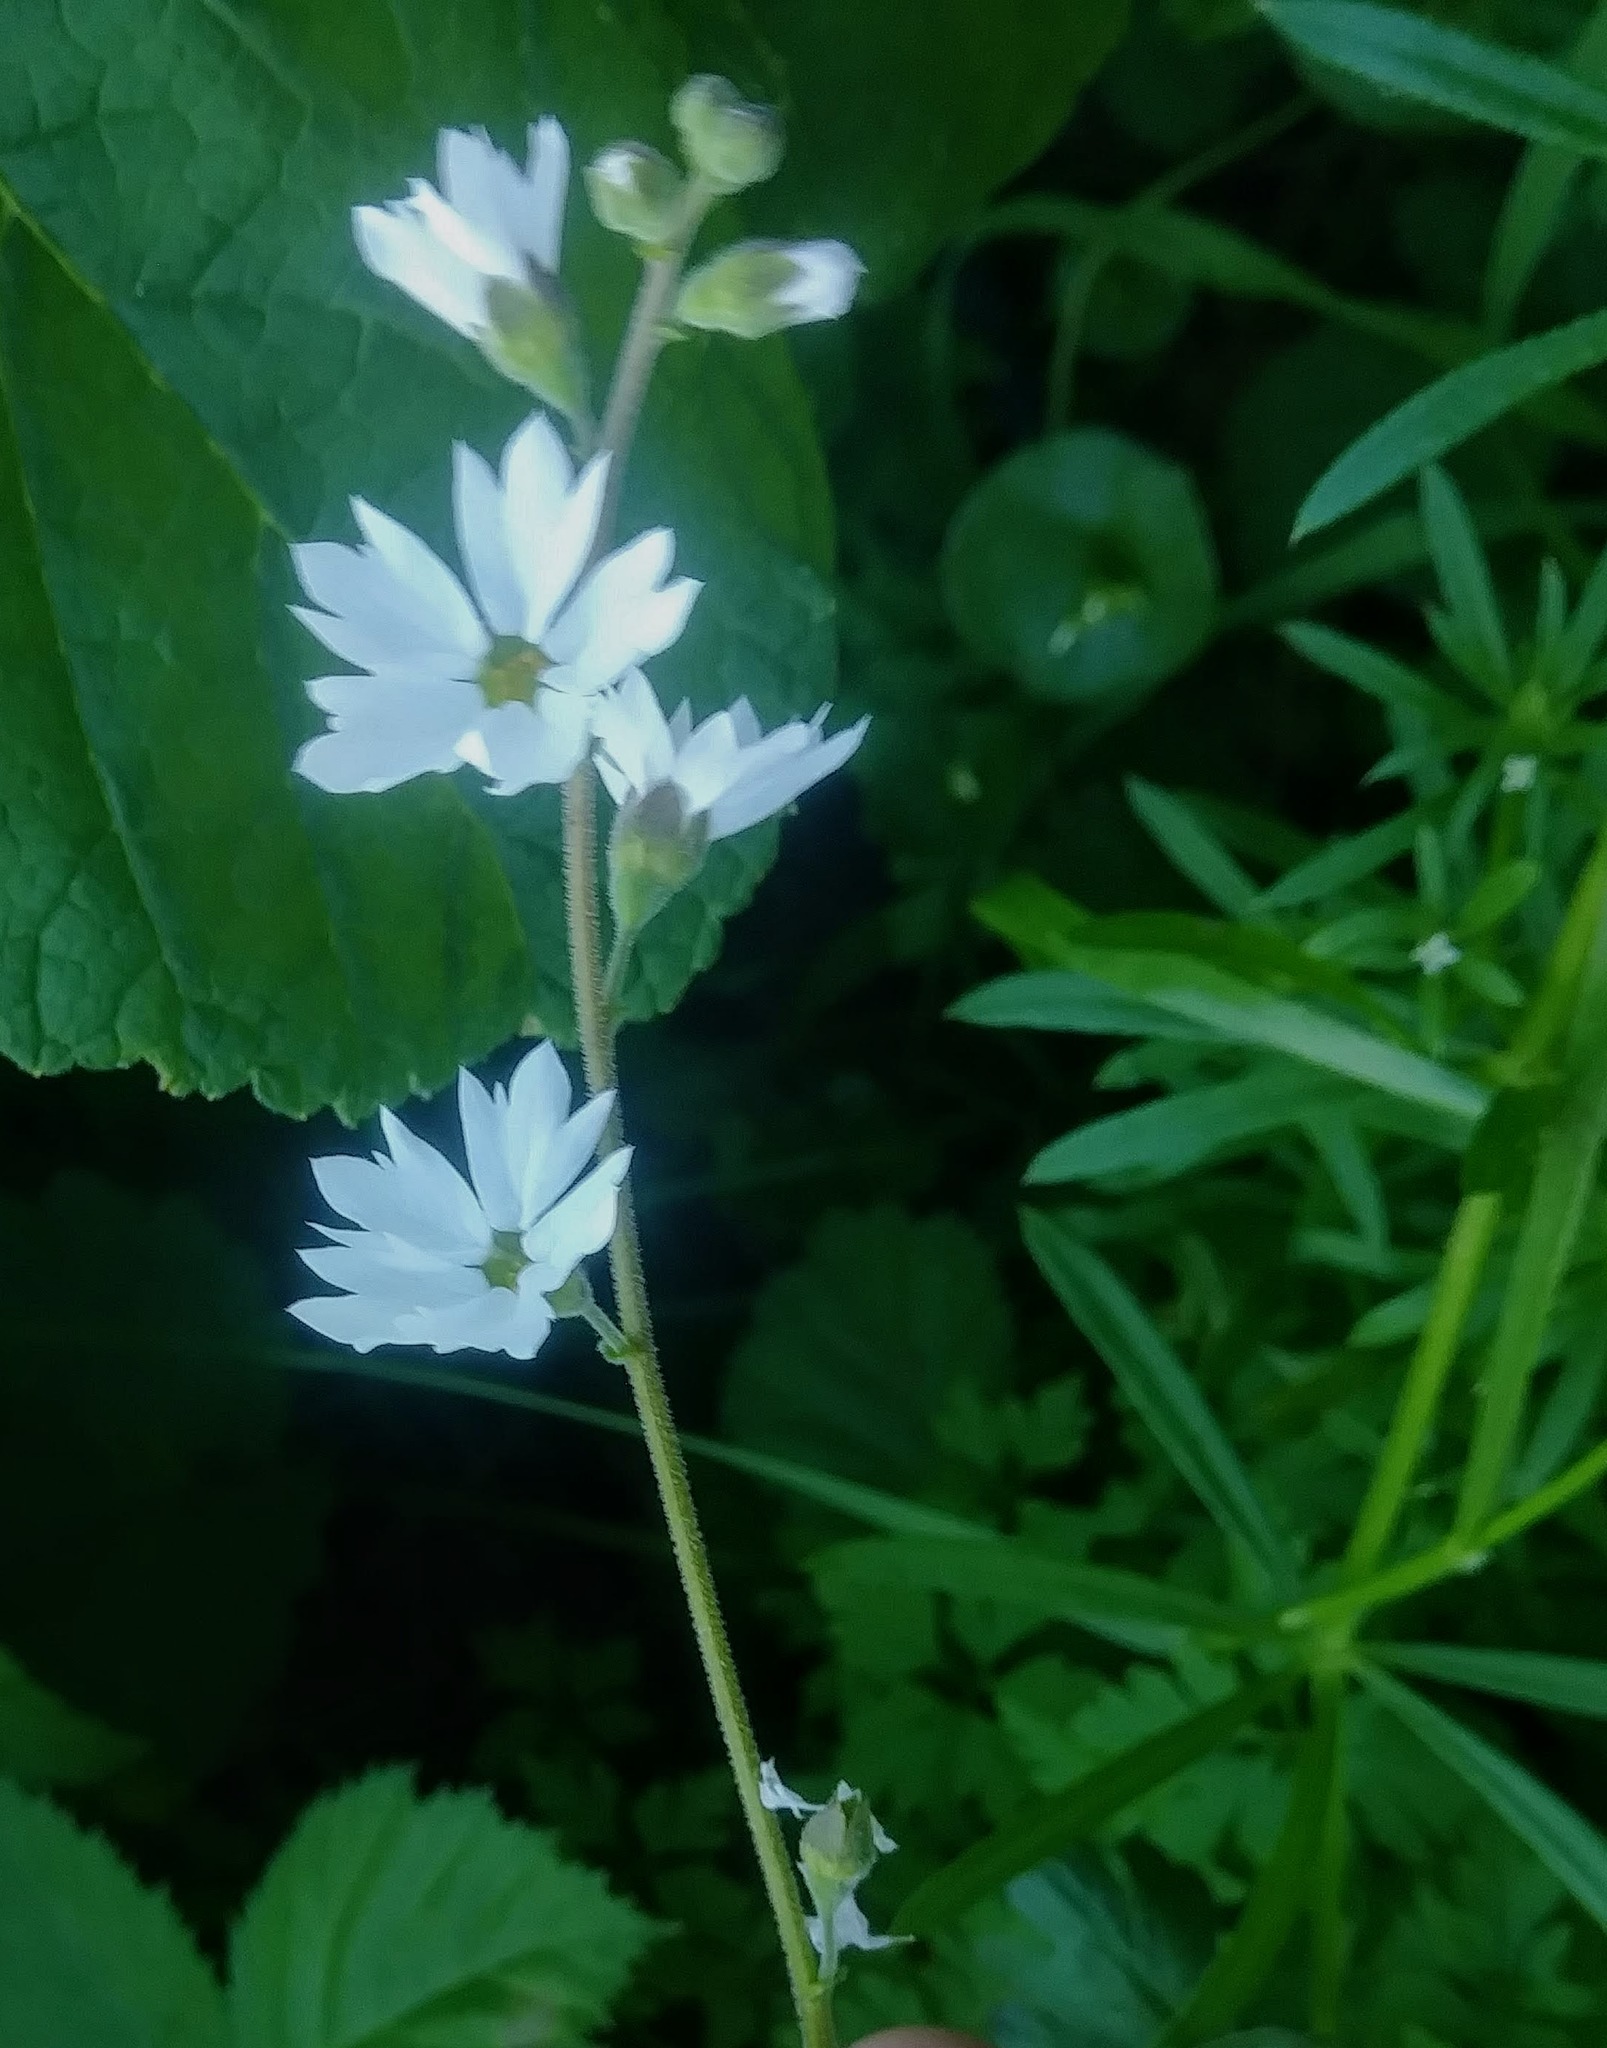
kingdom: Plantae
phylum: Tracheophyta
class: Magnoliopsida
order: Saxifragales
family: Saxifragaceae
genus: Lithophragma
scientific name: Lithophragma affine
